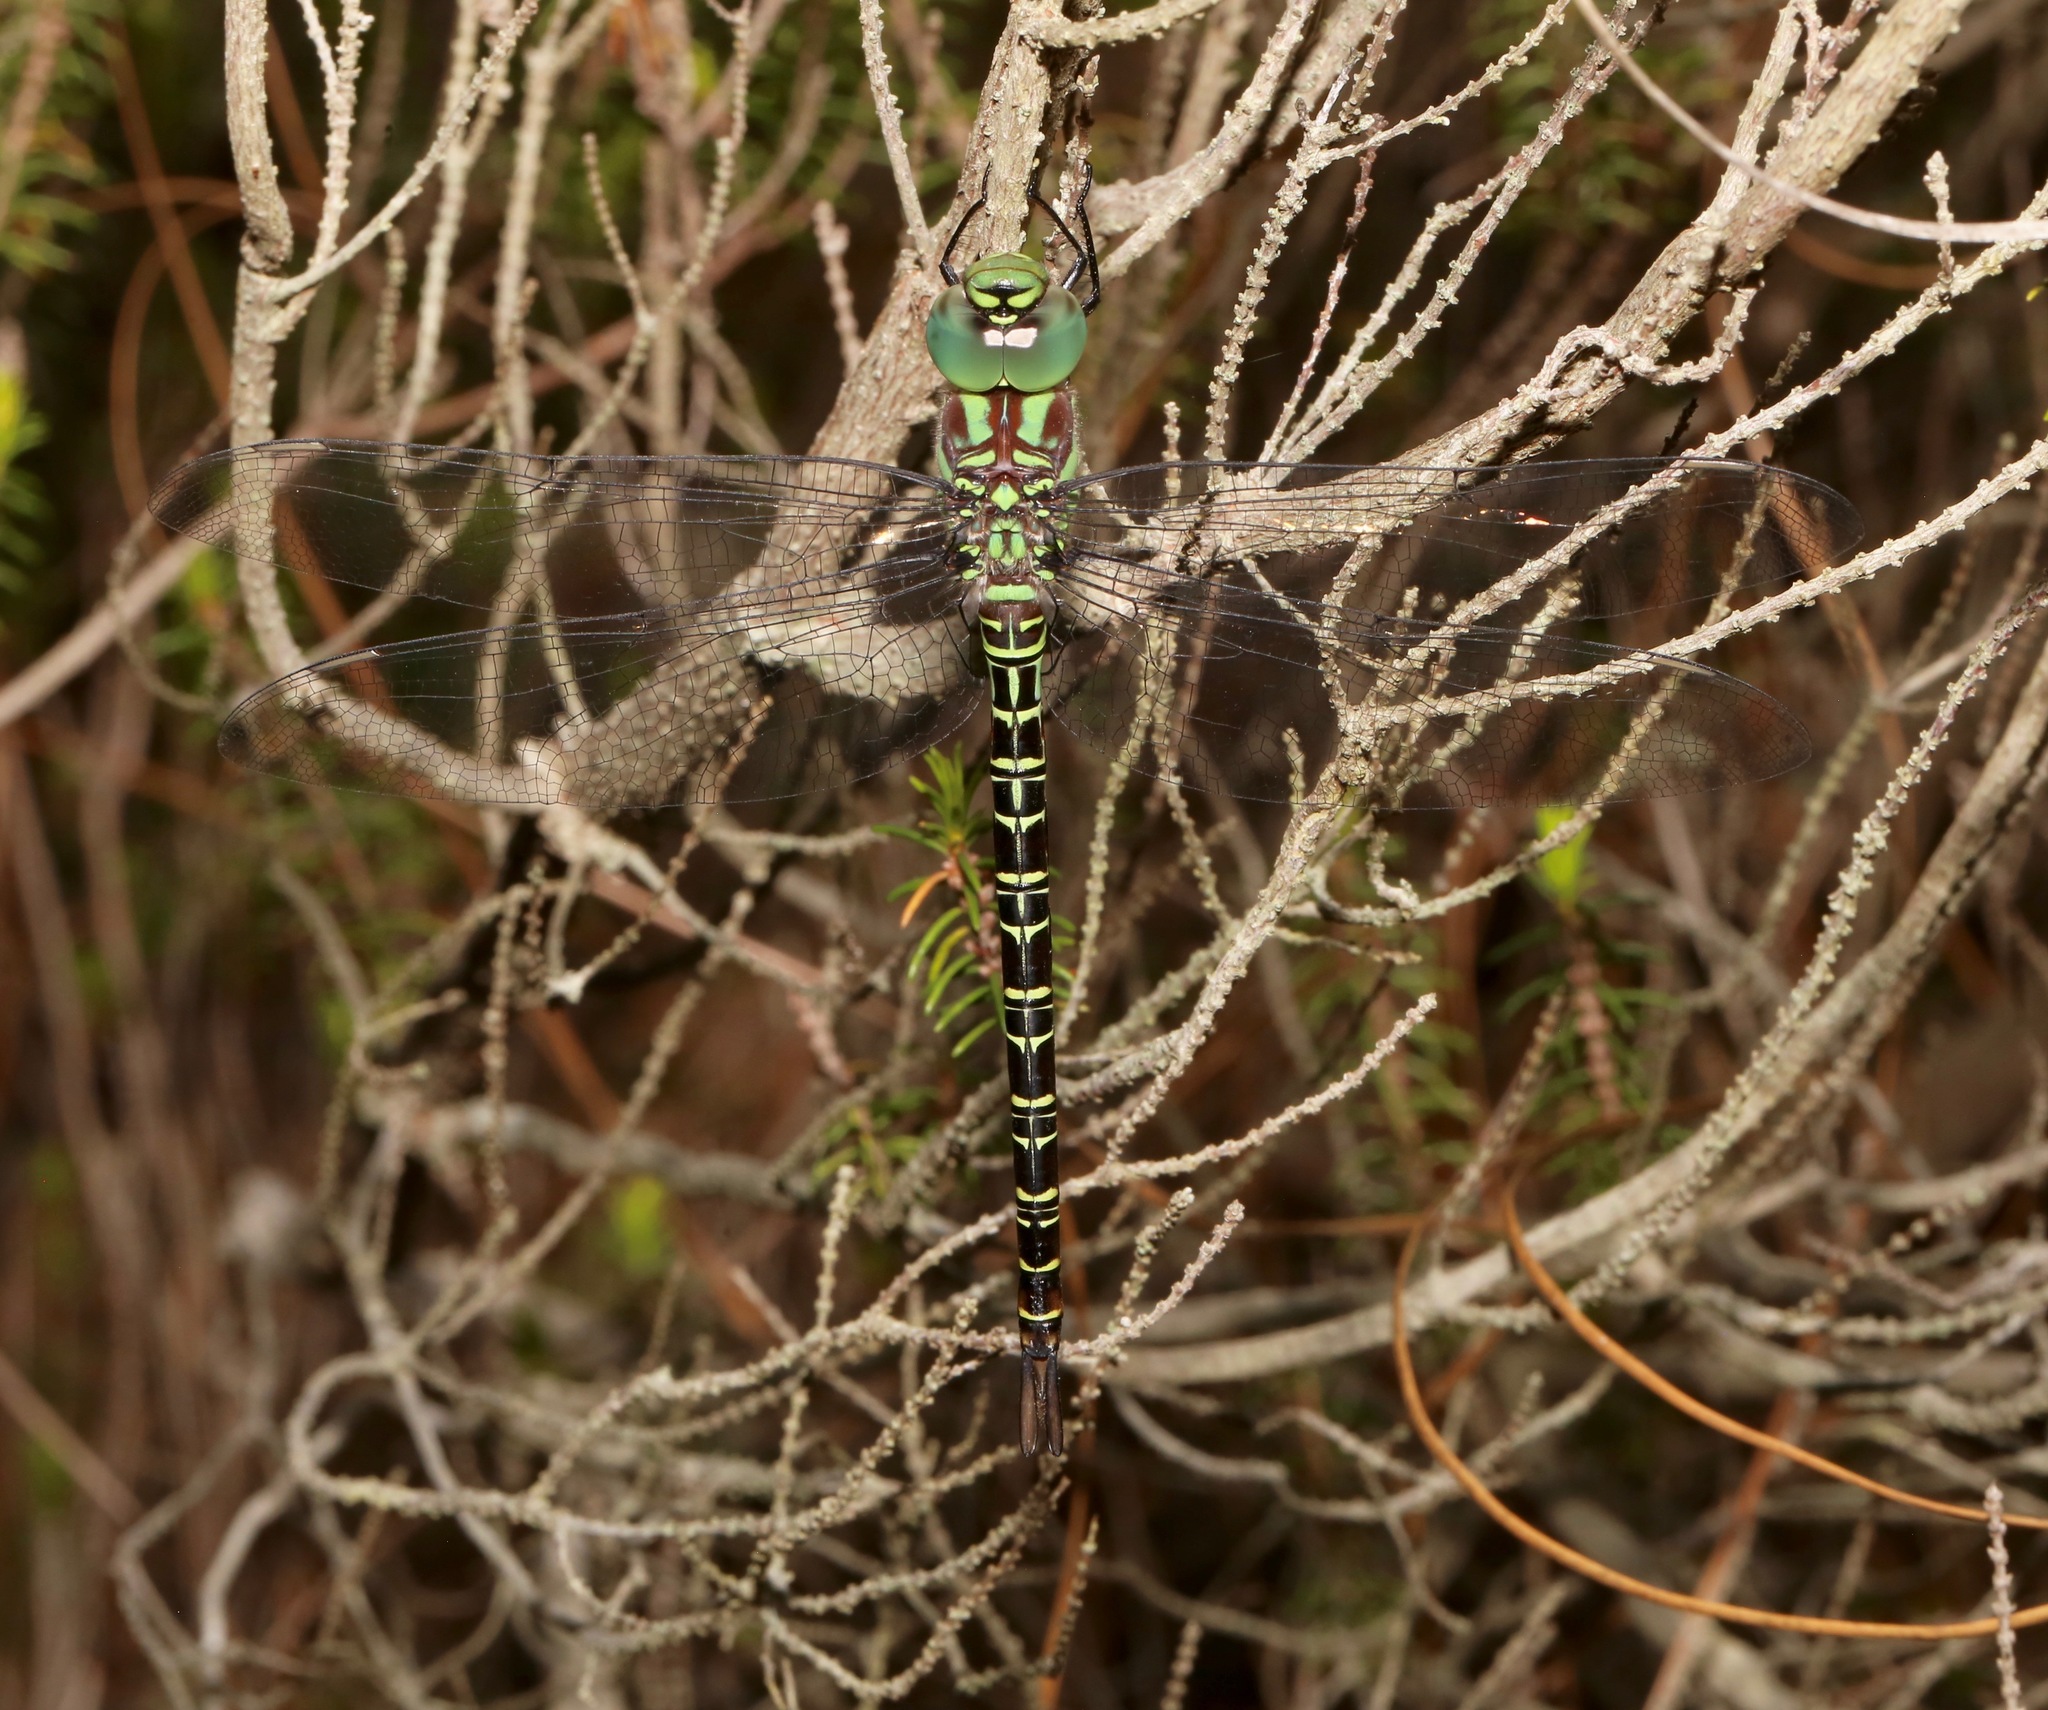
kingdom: Animalia
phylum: Arthropoda
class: Insecta
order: Odonata
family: Aeshnidae
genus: Coryphaeschna
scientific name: Coryphaeschna ingens
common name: Regal darner
